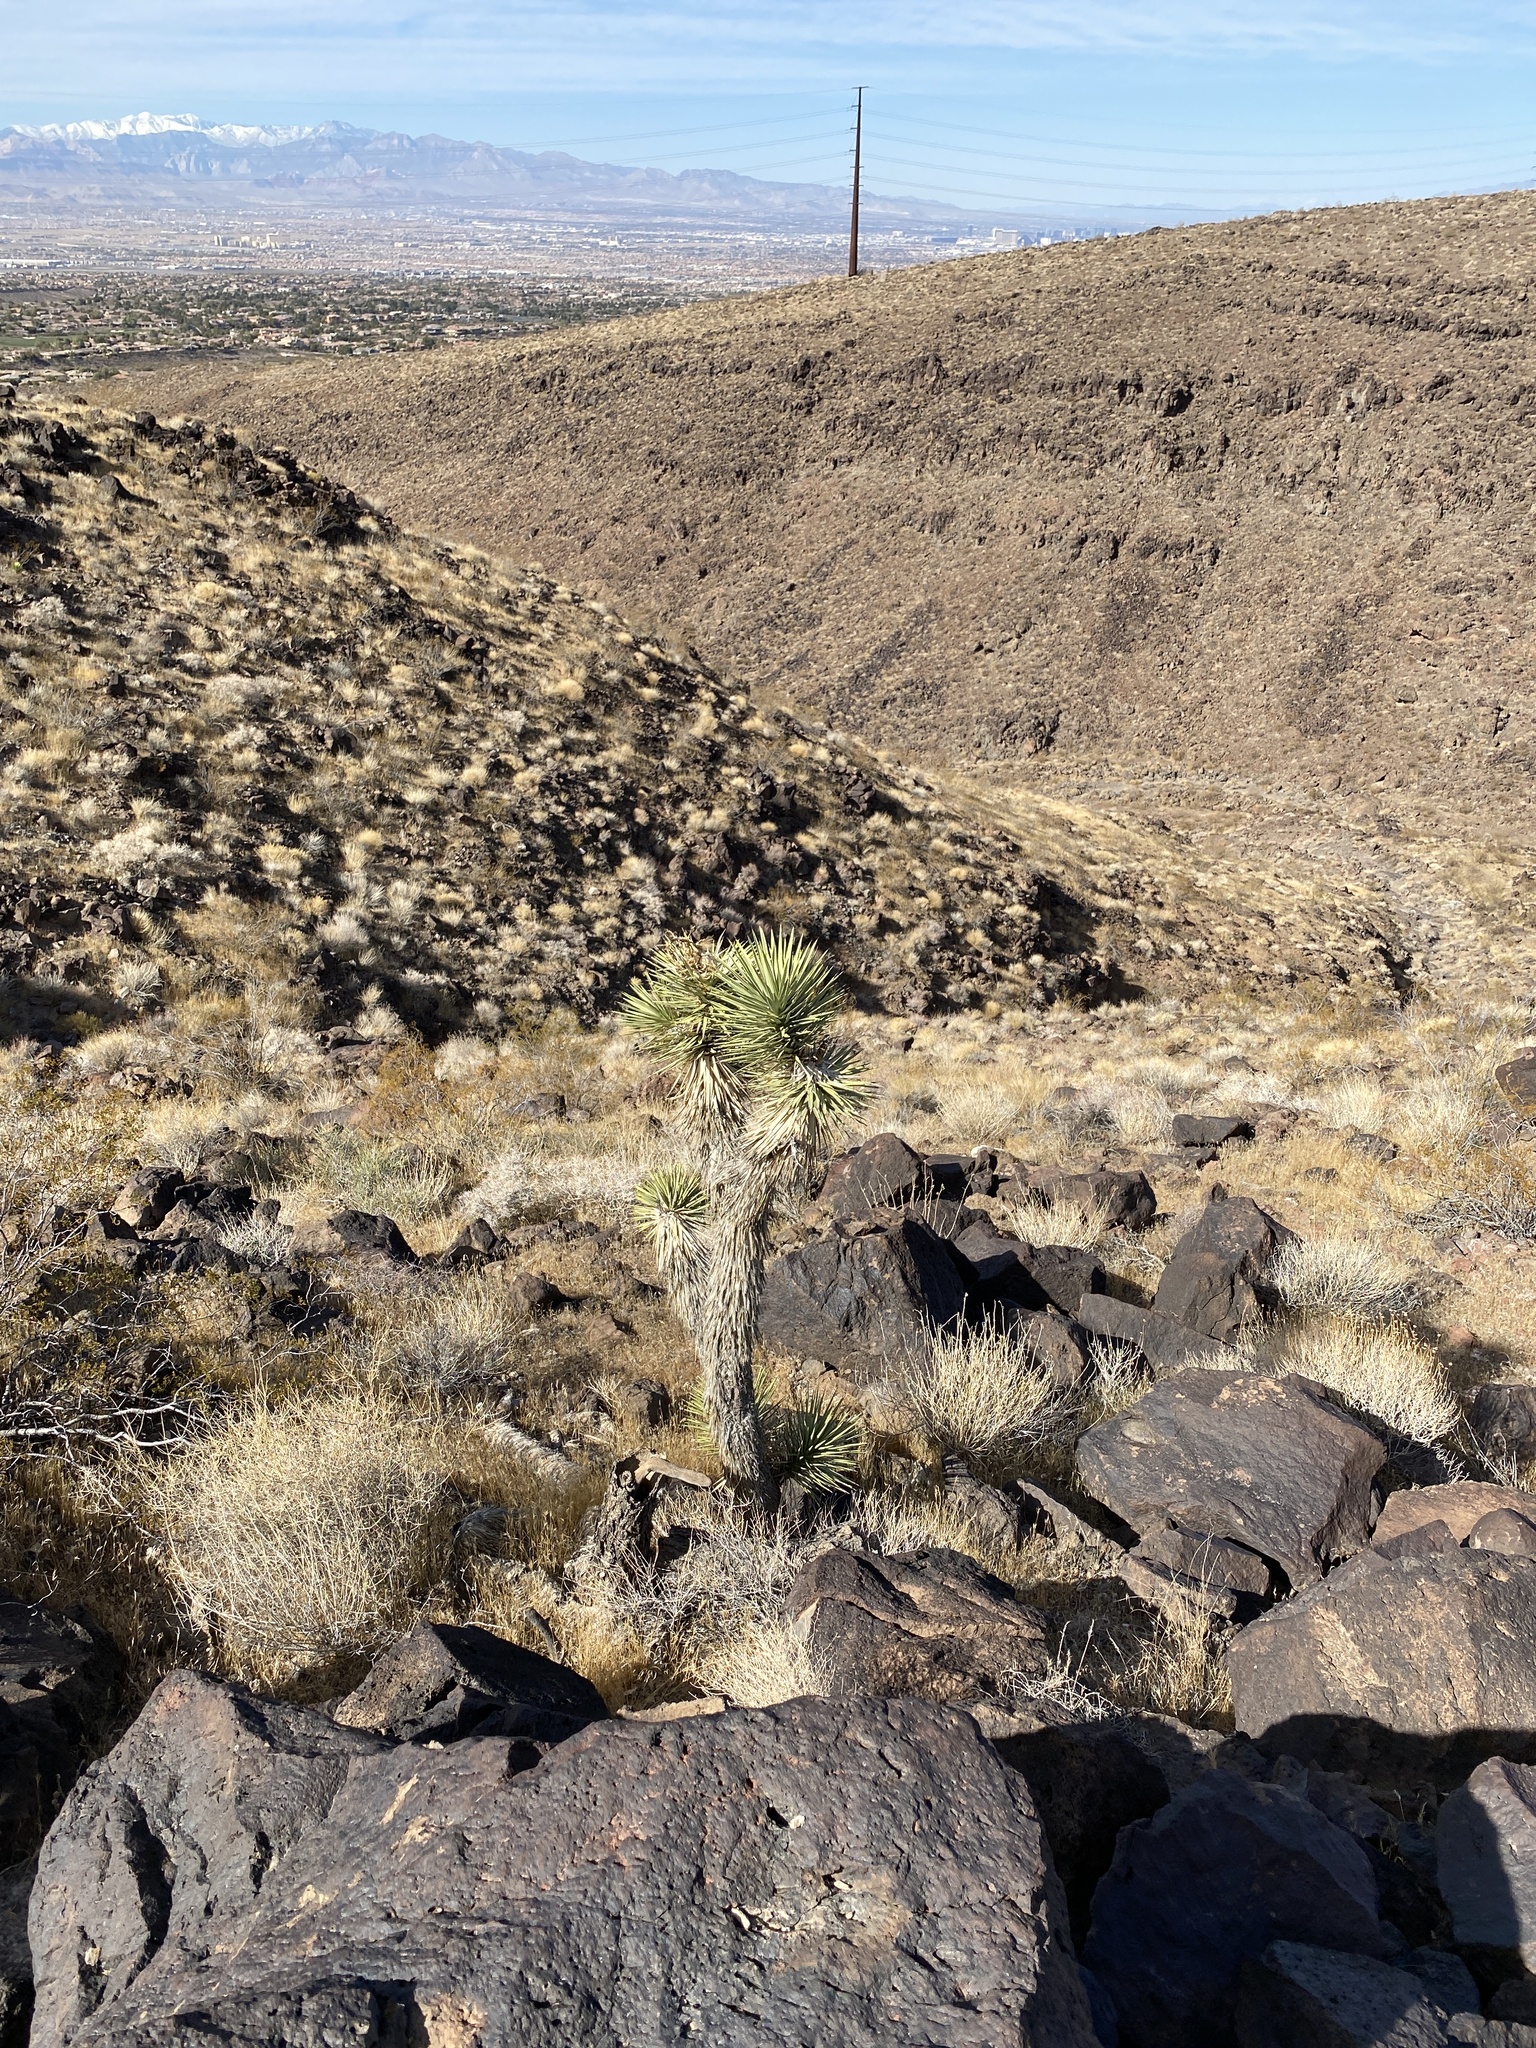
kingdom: Plantae
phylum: Tracheophyta
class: Liliopsida
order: Asparagales
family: Asparagaceae
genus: Yucca
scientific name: Yucca brevifolia
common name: Joshua tree
